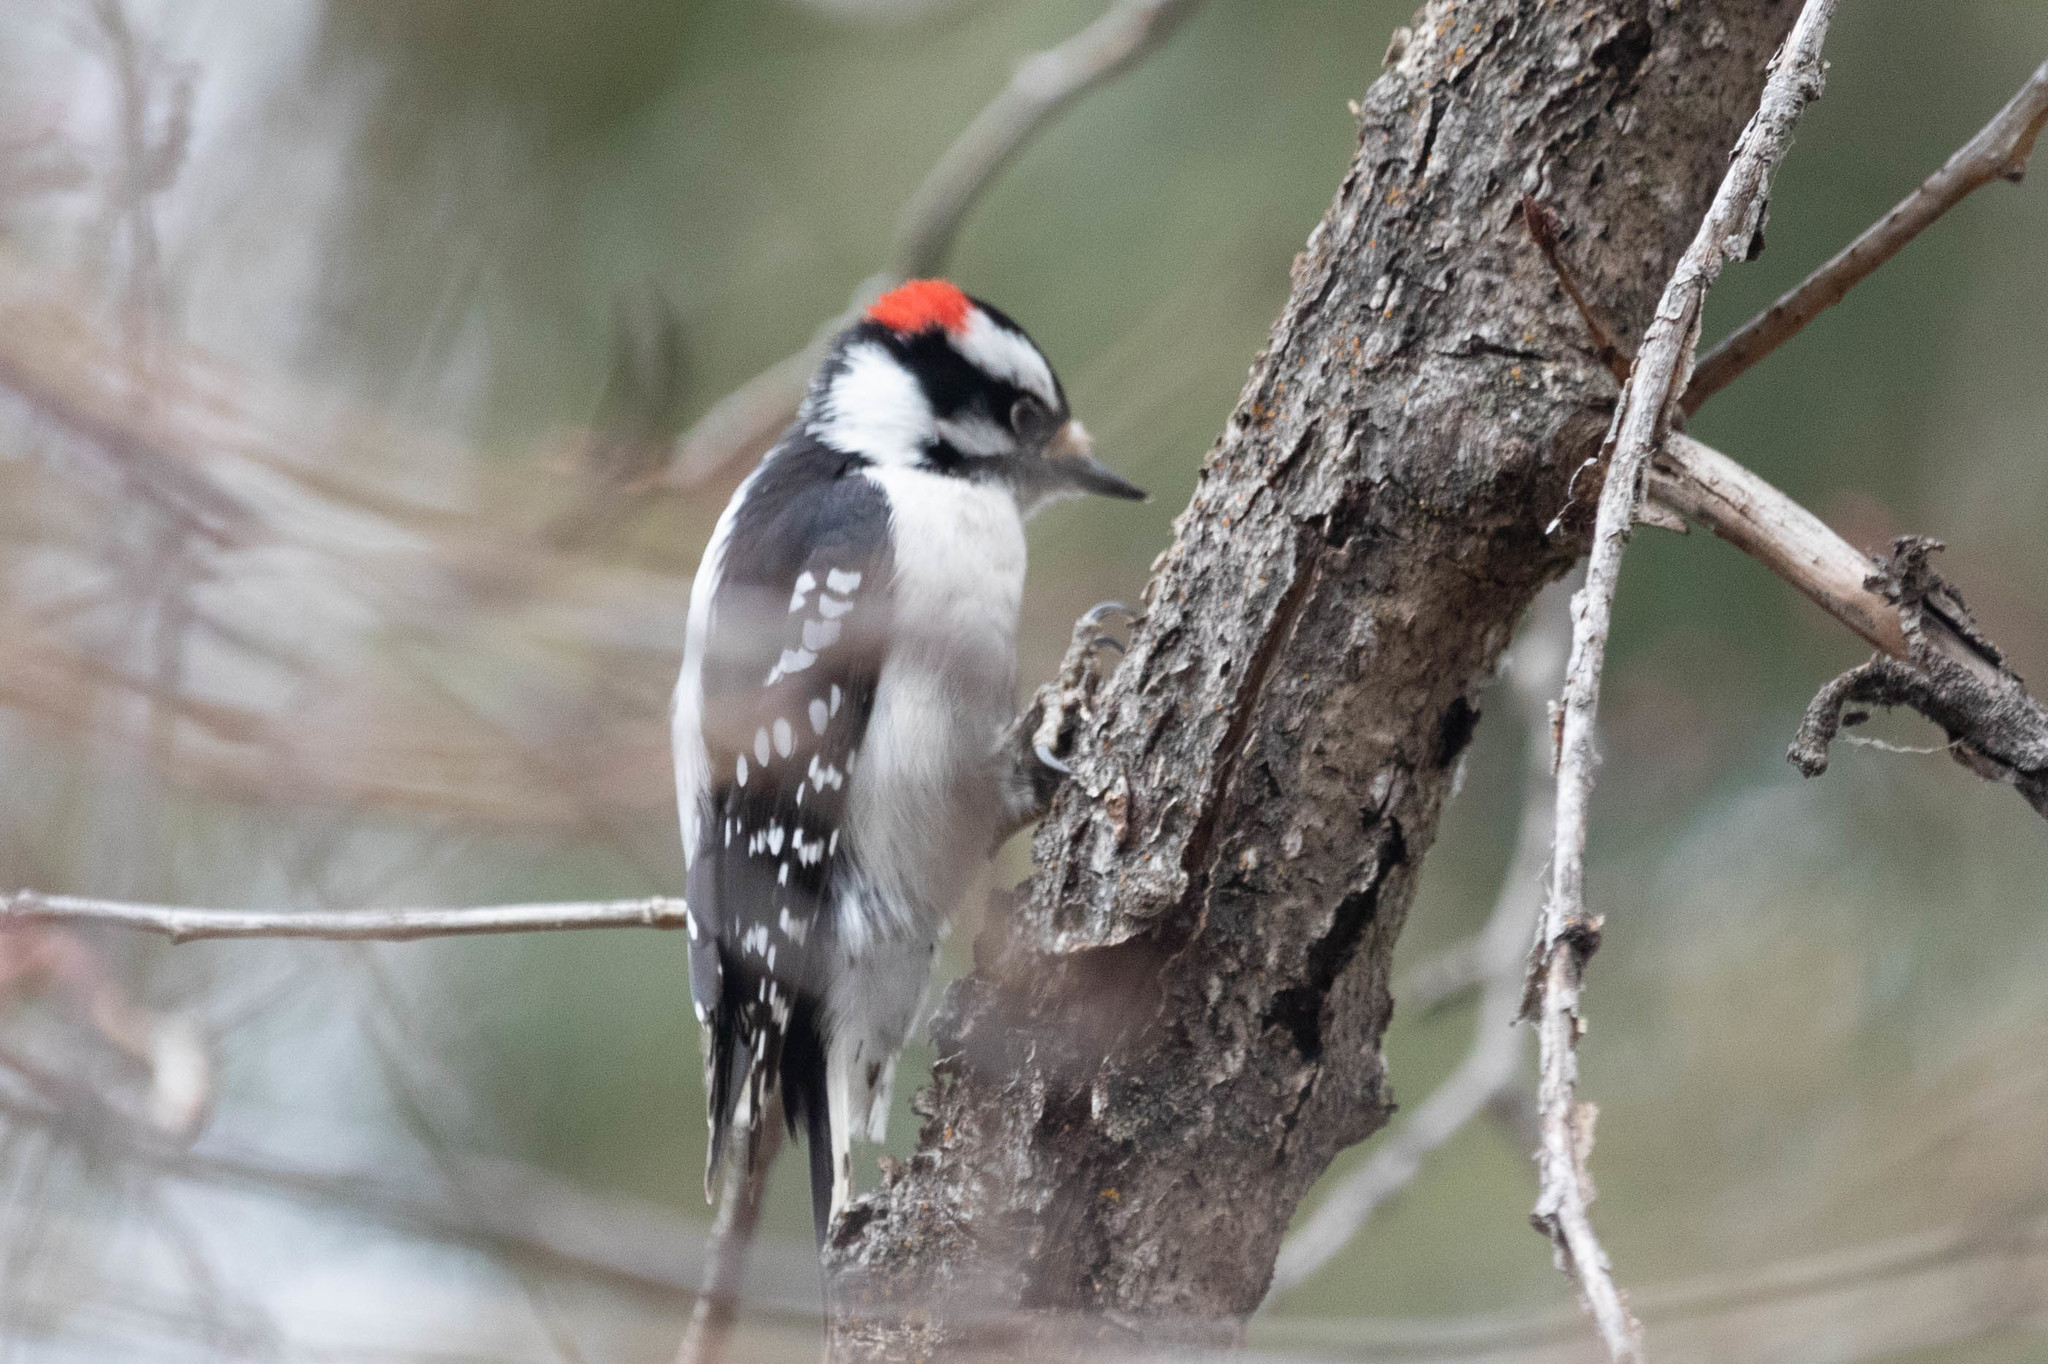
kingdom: Animalia
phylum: Chordata
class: Aves
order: Piciformes
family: Picidae
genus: Dryobates
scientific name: Dryobates pubescens
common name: Downy woodpecker
